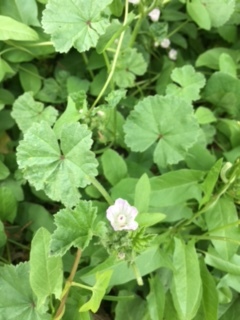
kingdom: Plantae
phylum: Tracheophyta
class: Magnoliopsida
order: Malvales
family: Malvaceae
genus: Malva
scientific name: Malva neglecta
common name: Common mallow
